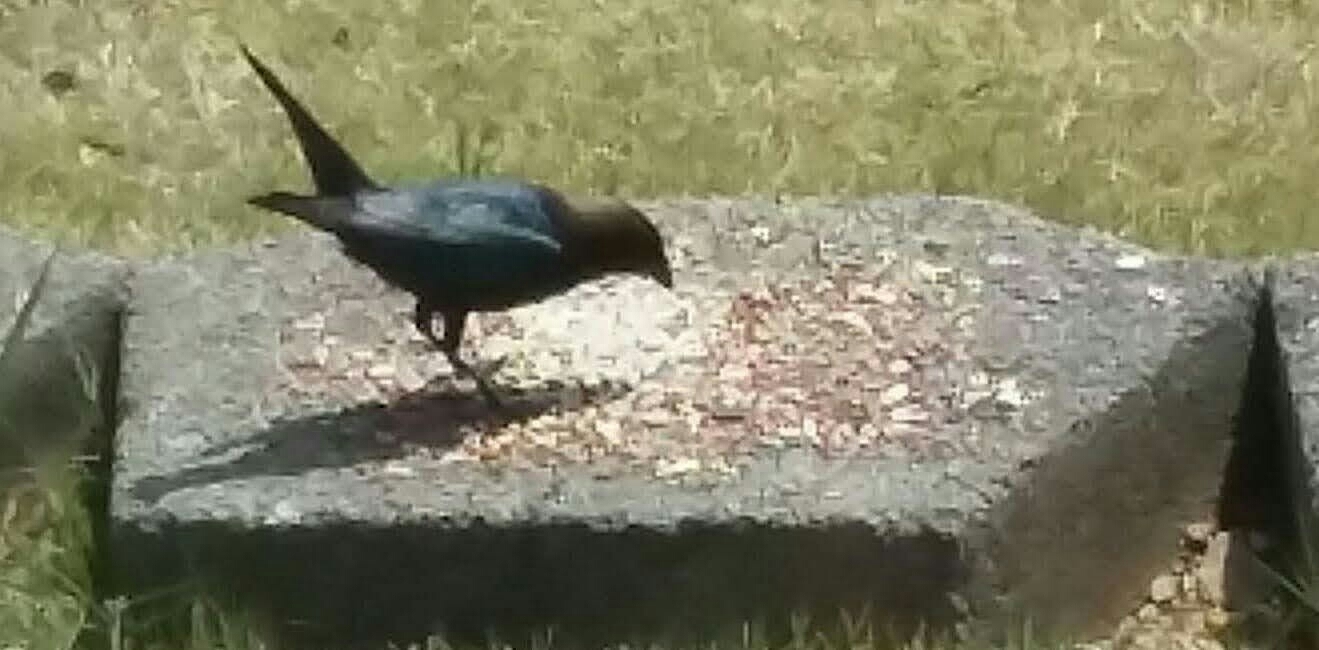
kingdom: Animalia
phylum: Chordata
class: Aves
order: Passeriformes
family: Icteridae
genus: Molothrus
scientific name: Molothrus ater
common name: Brown-headed cowbird
